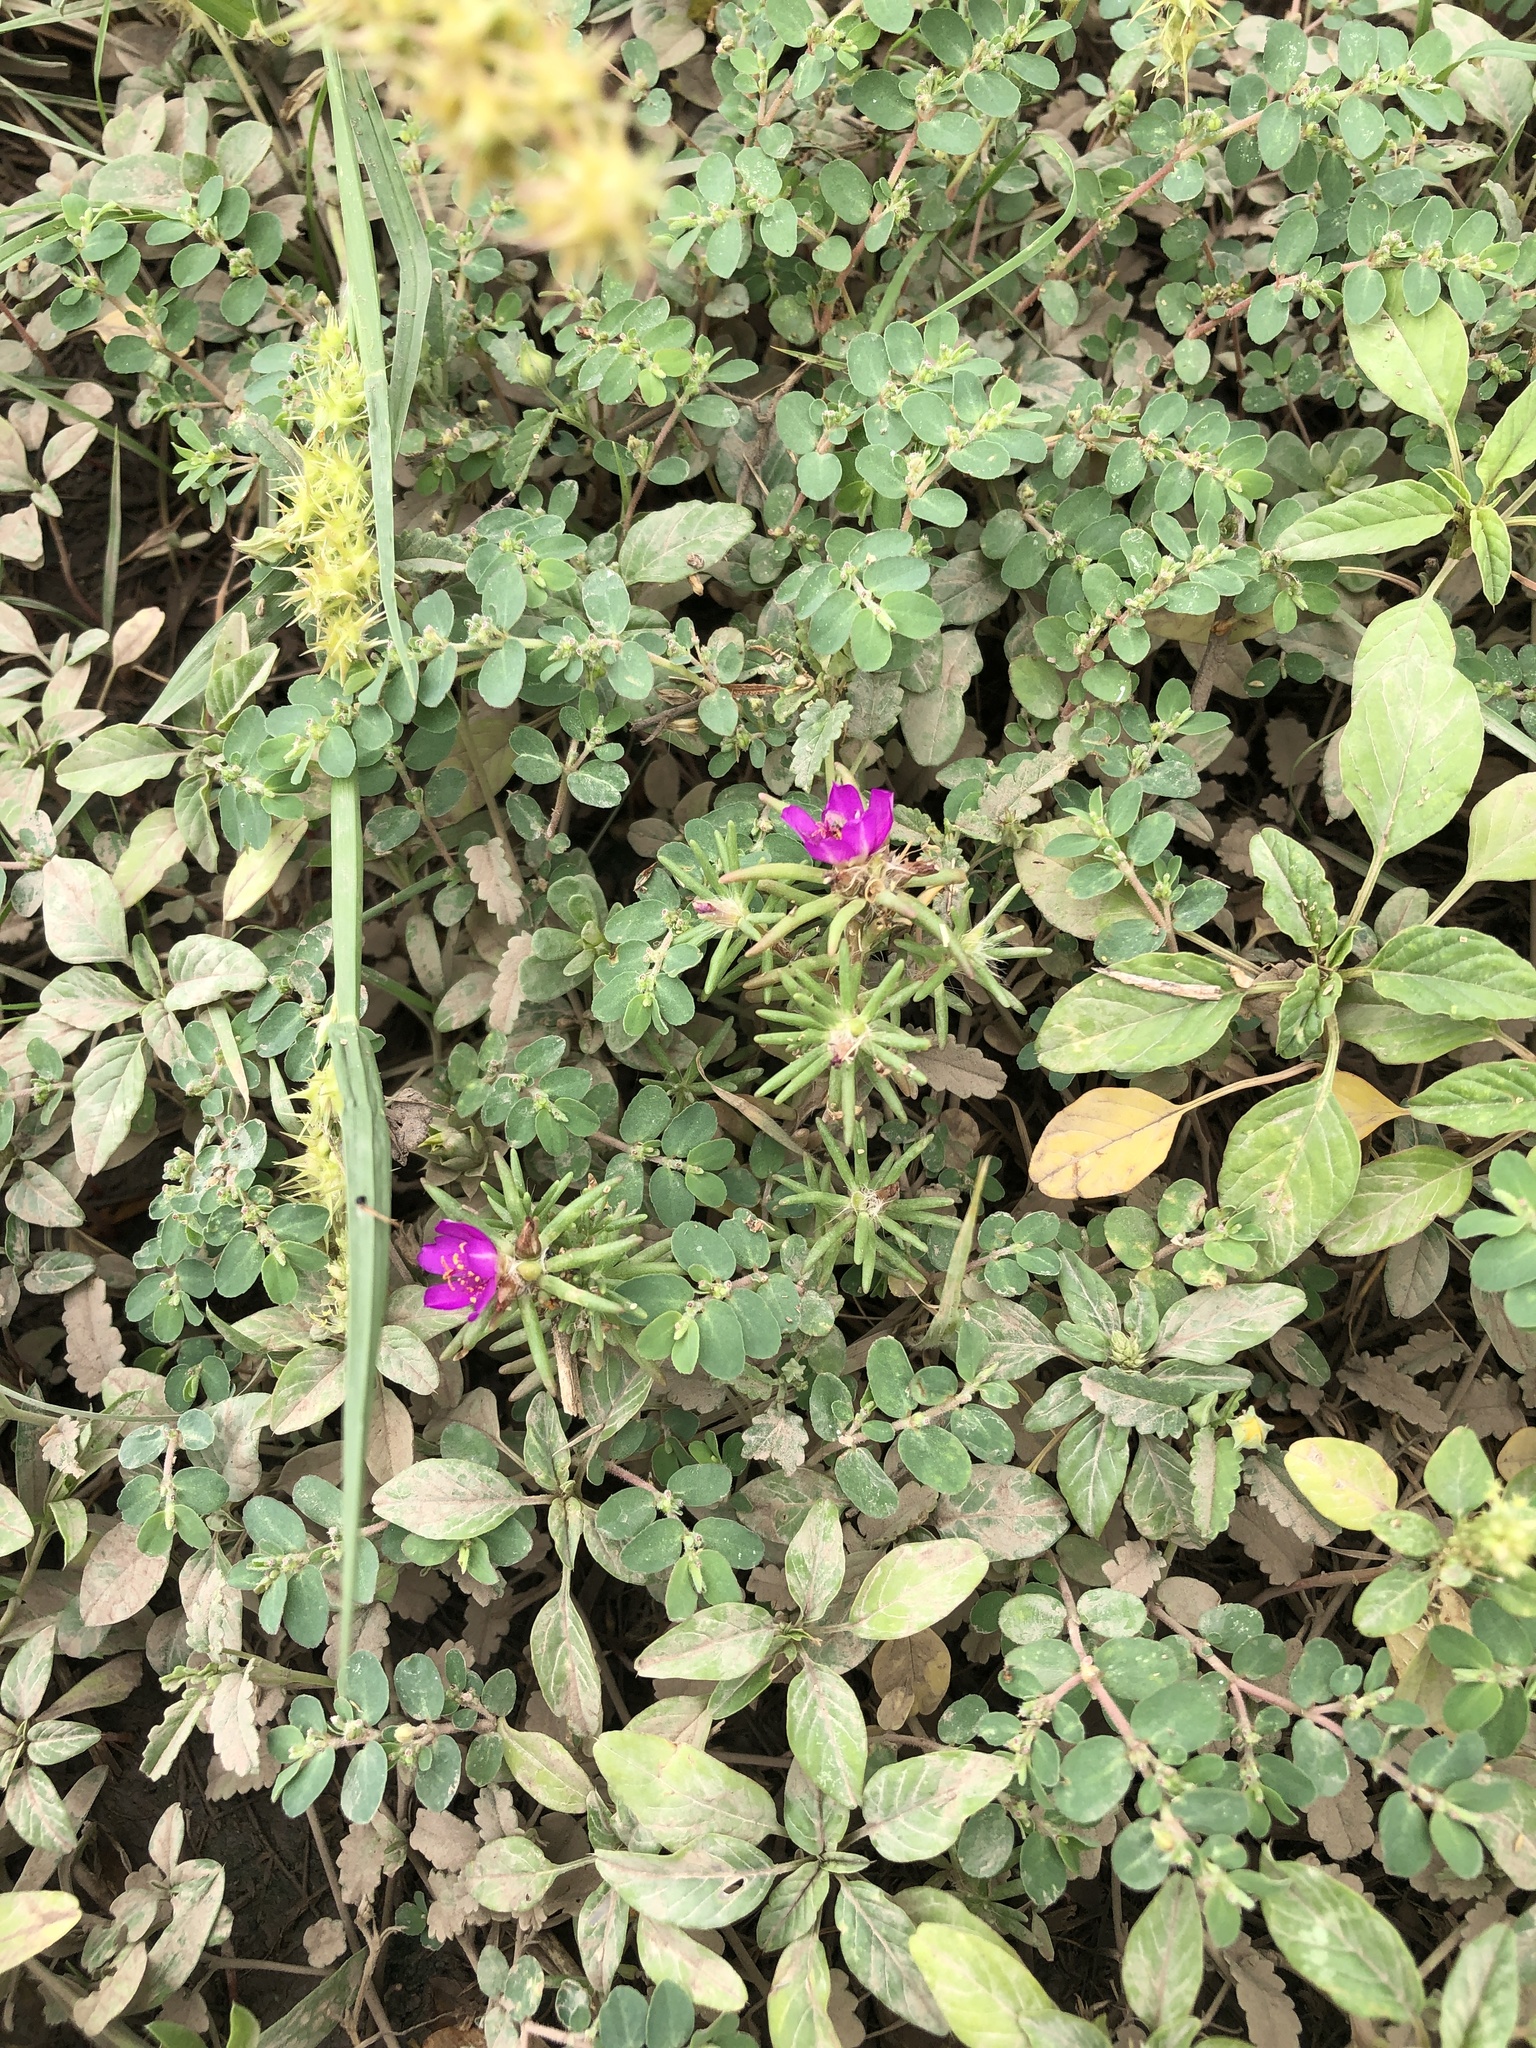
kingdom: Plantae
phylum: Tracheophyta
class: Magnoliopsida
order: Caryophyllales
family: Portulacaceae
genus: Portulaca
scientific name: Portulaca pilosa
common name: Kiss me quick
